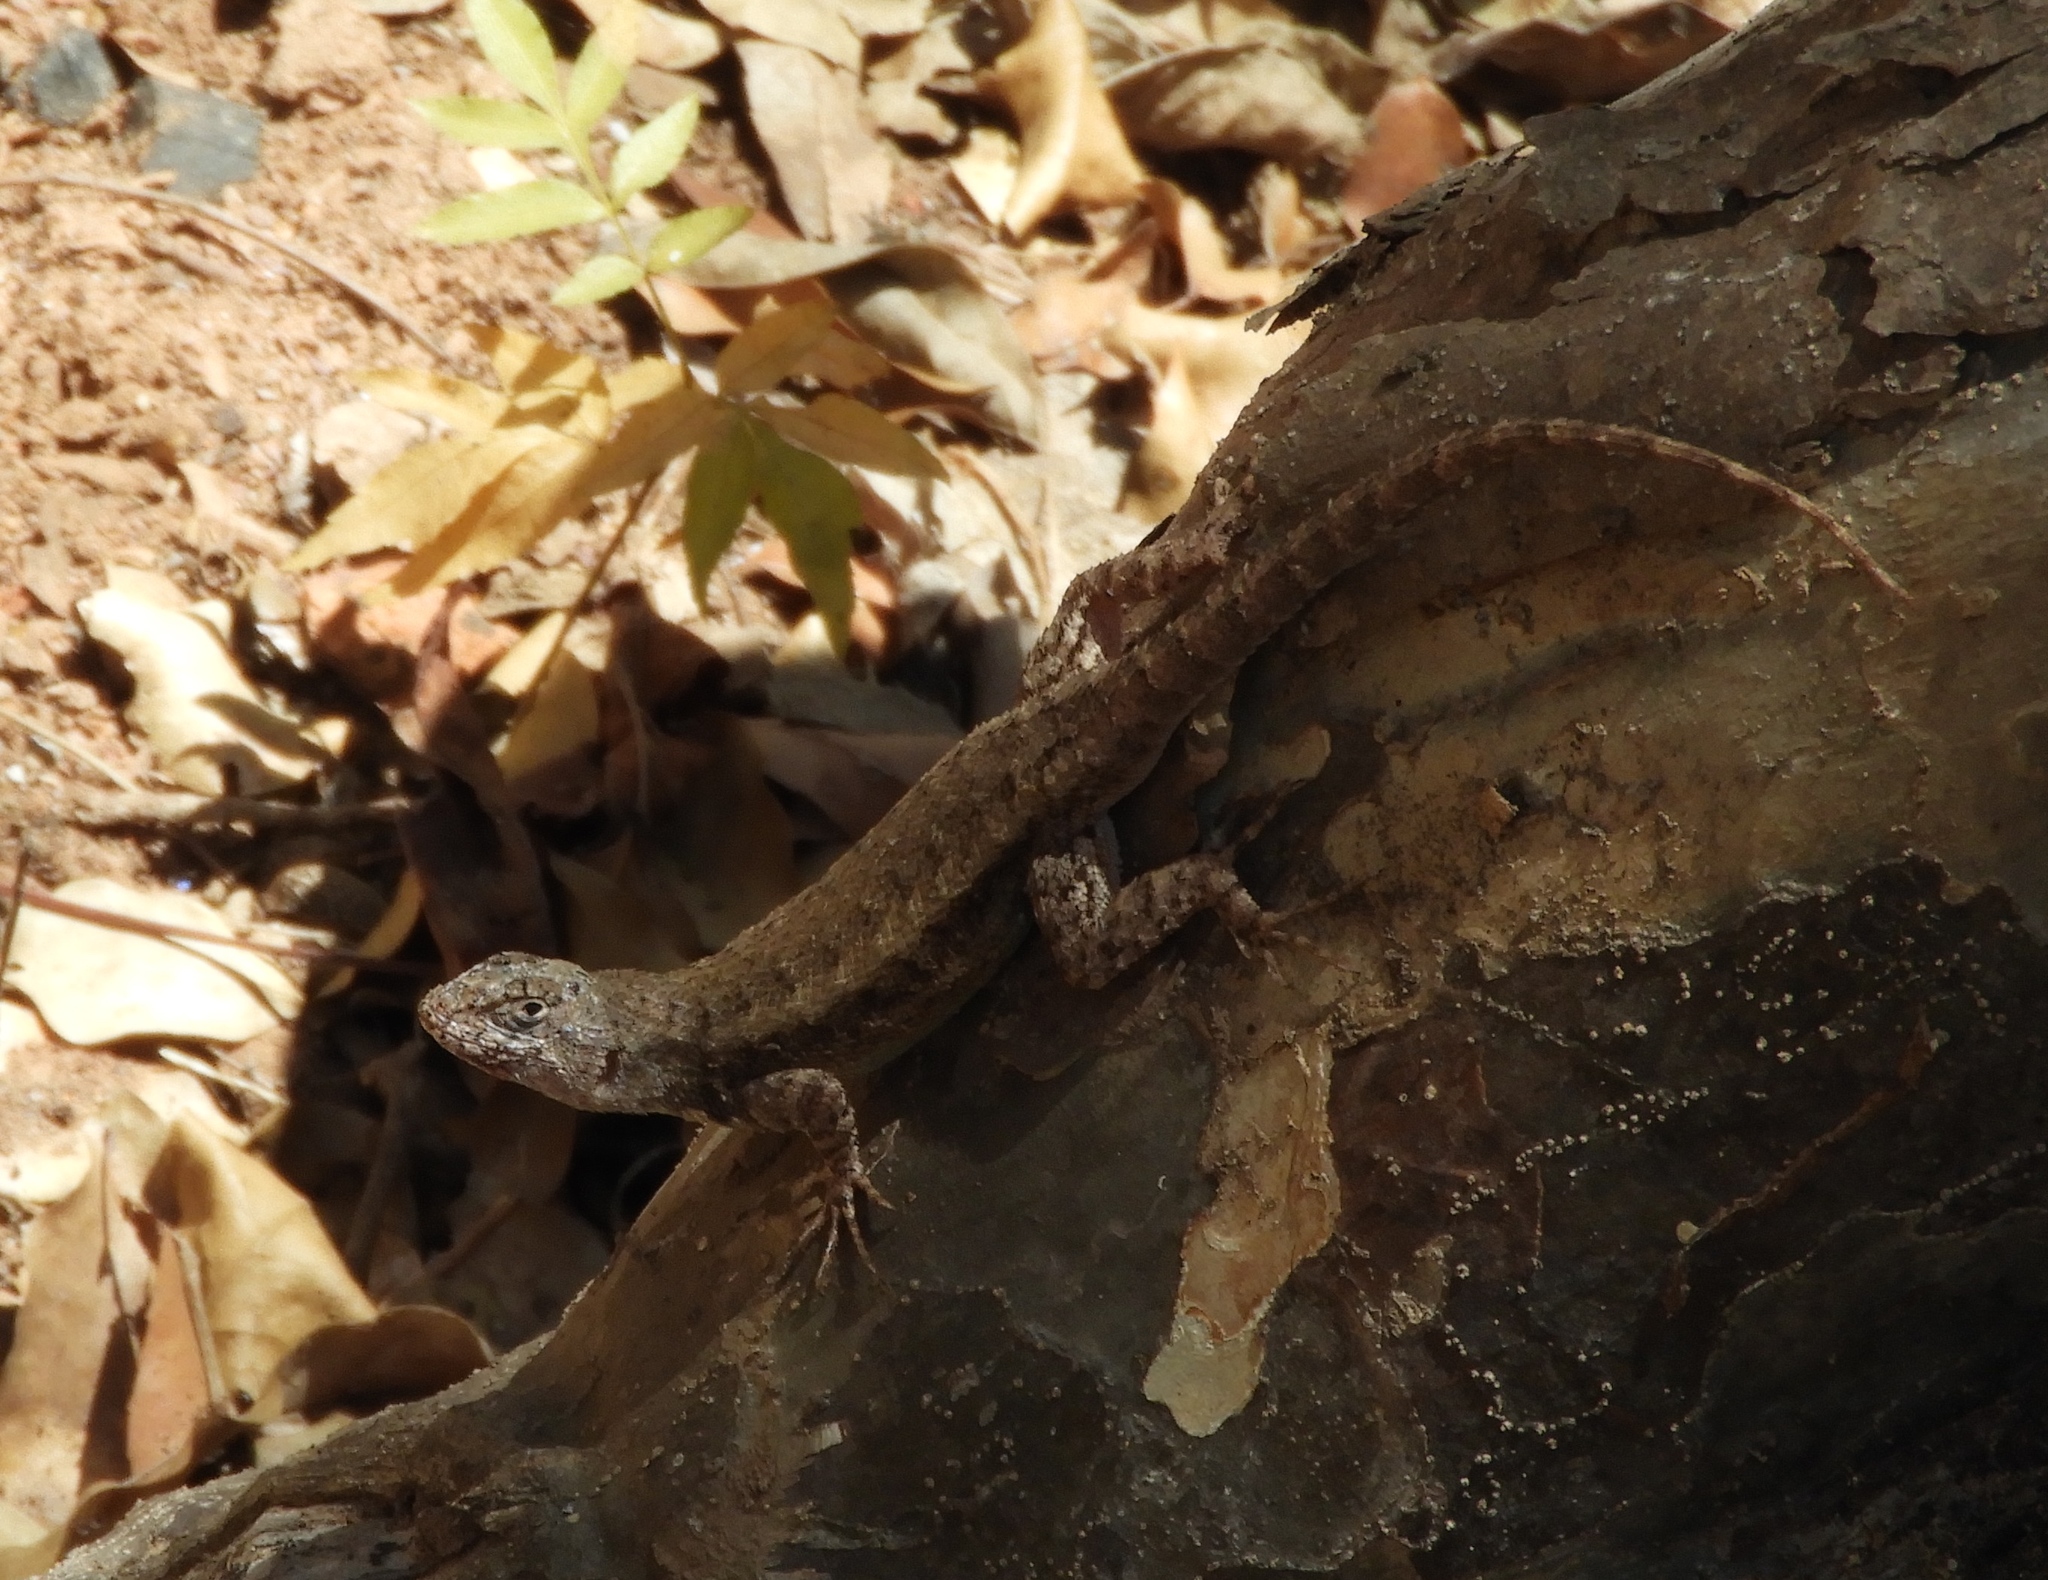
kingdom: Animalia
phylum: Chordata
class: Squamata
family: Phrynosomatidae
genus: Sceloporus
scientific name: Sceloporus nelsoni
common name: Nelson's spiny lizard
